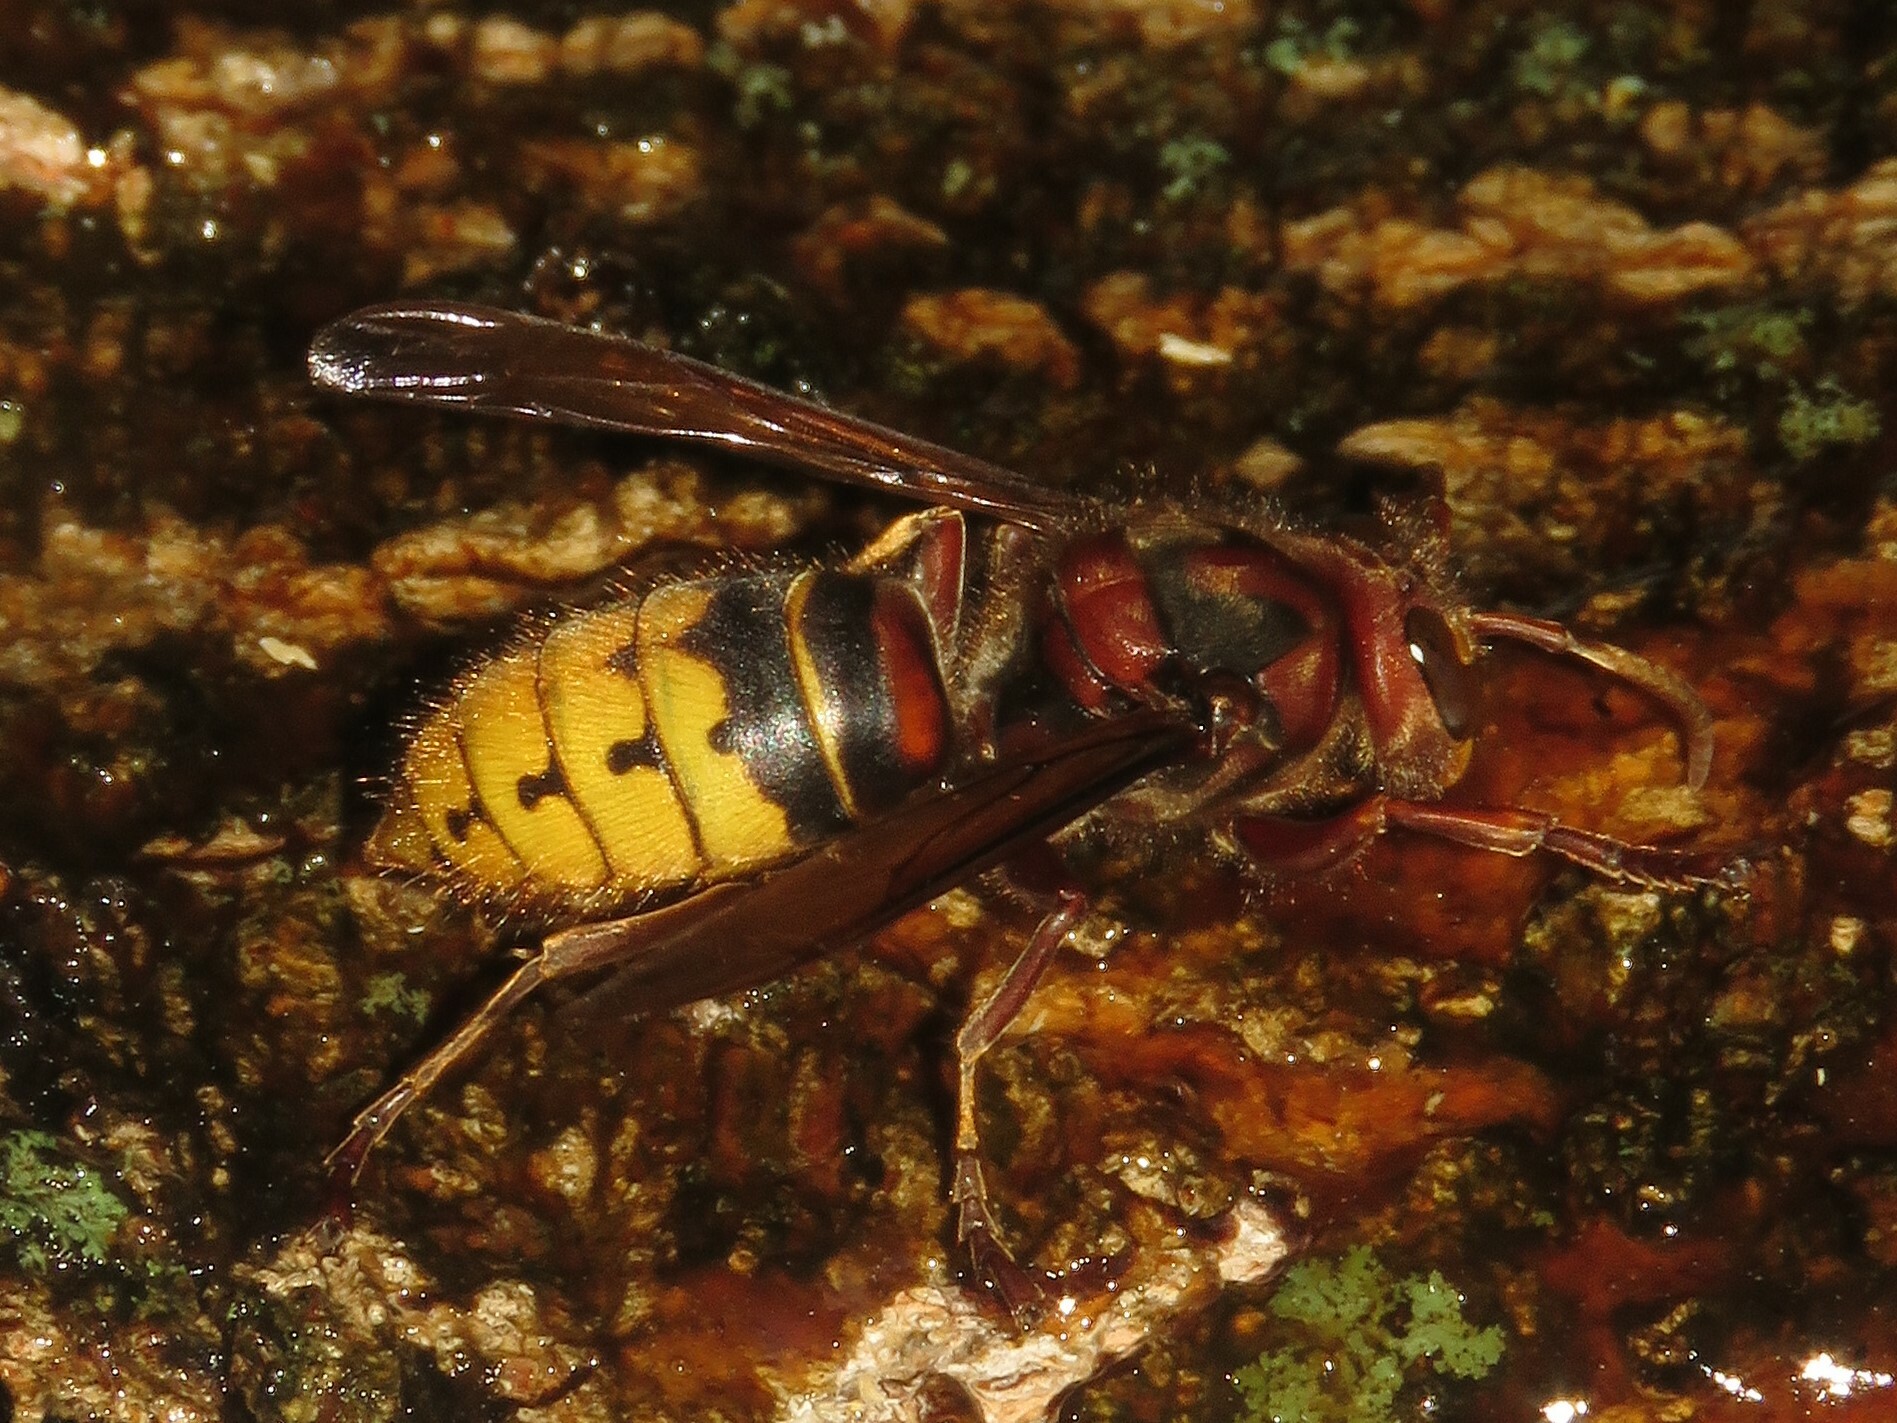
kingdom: Animalia
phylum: Arthropoda
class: Insecta
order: Hymenoptera
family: Vespidae
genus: Vespa
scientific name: Vespa crabro
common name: Hornet
